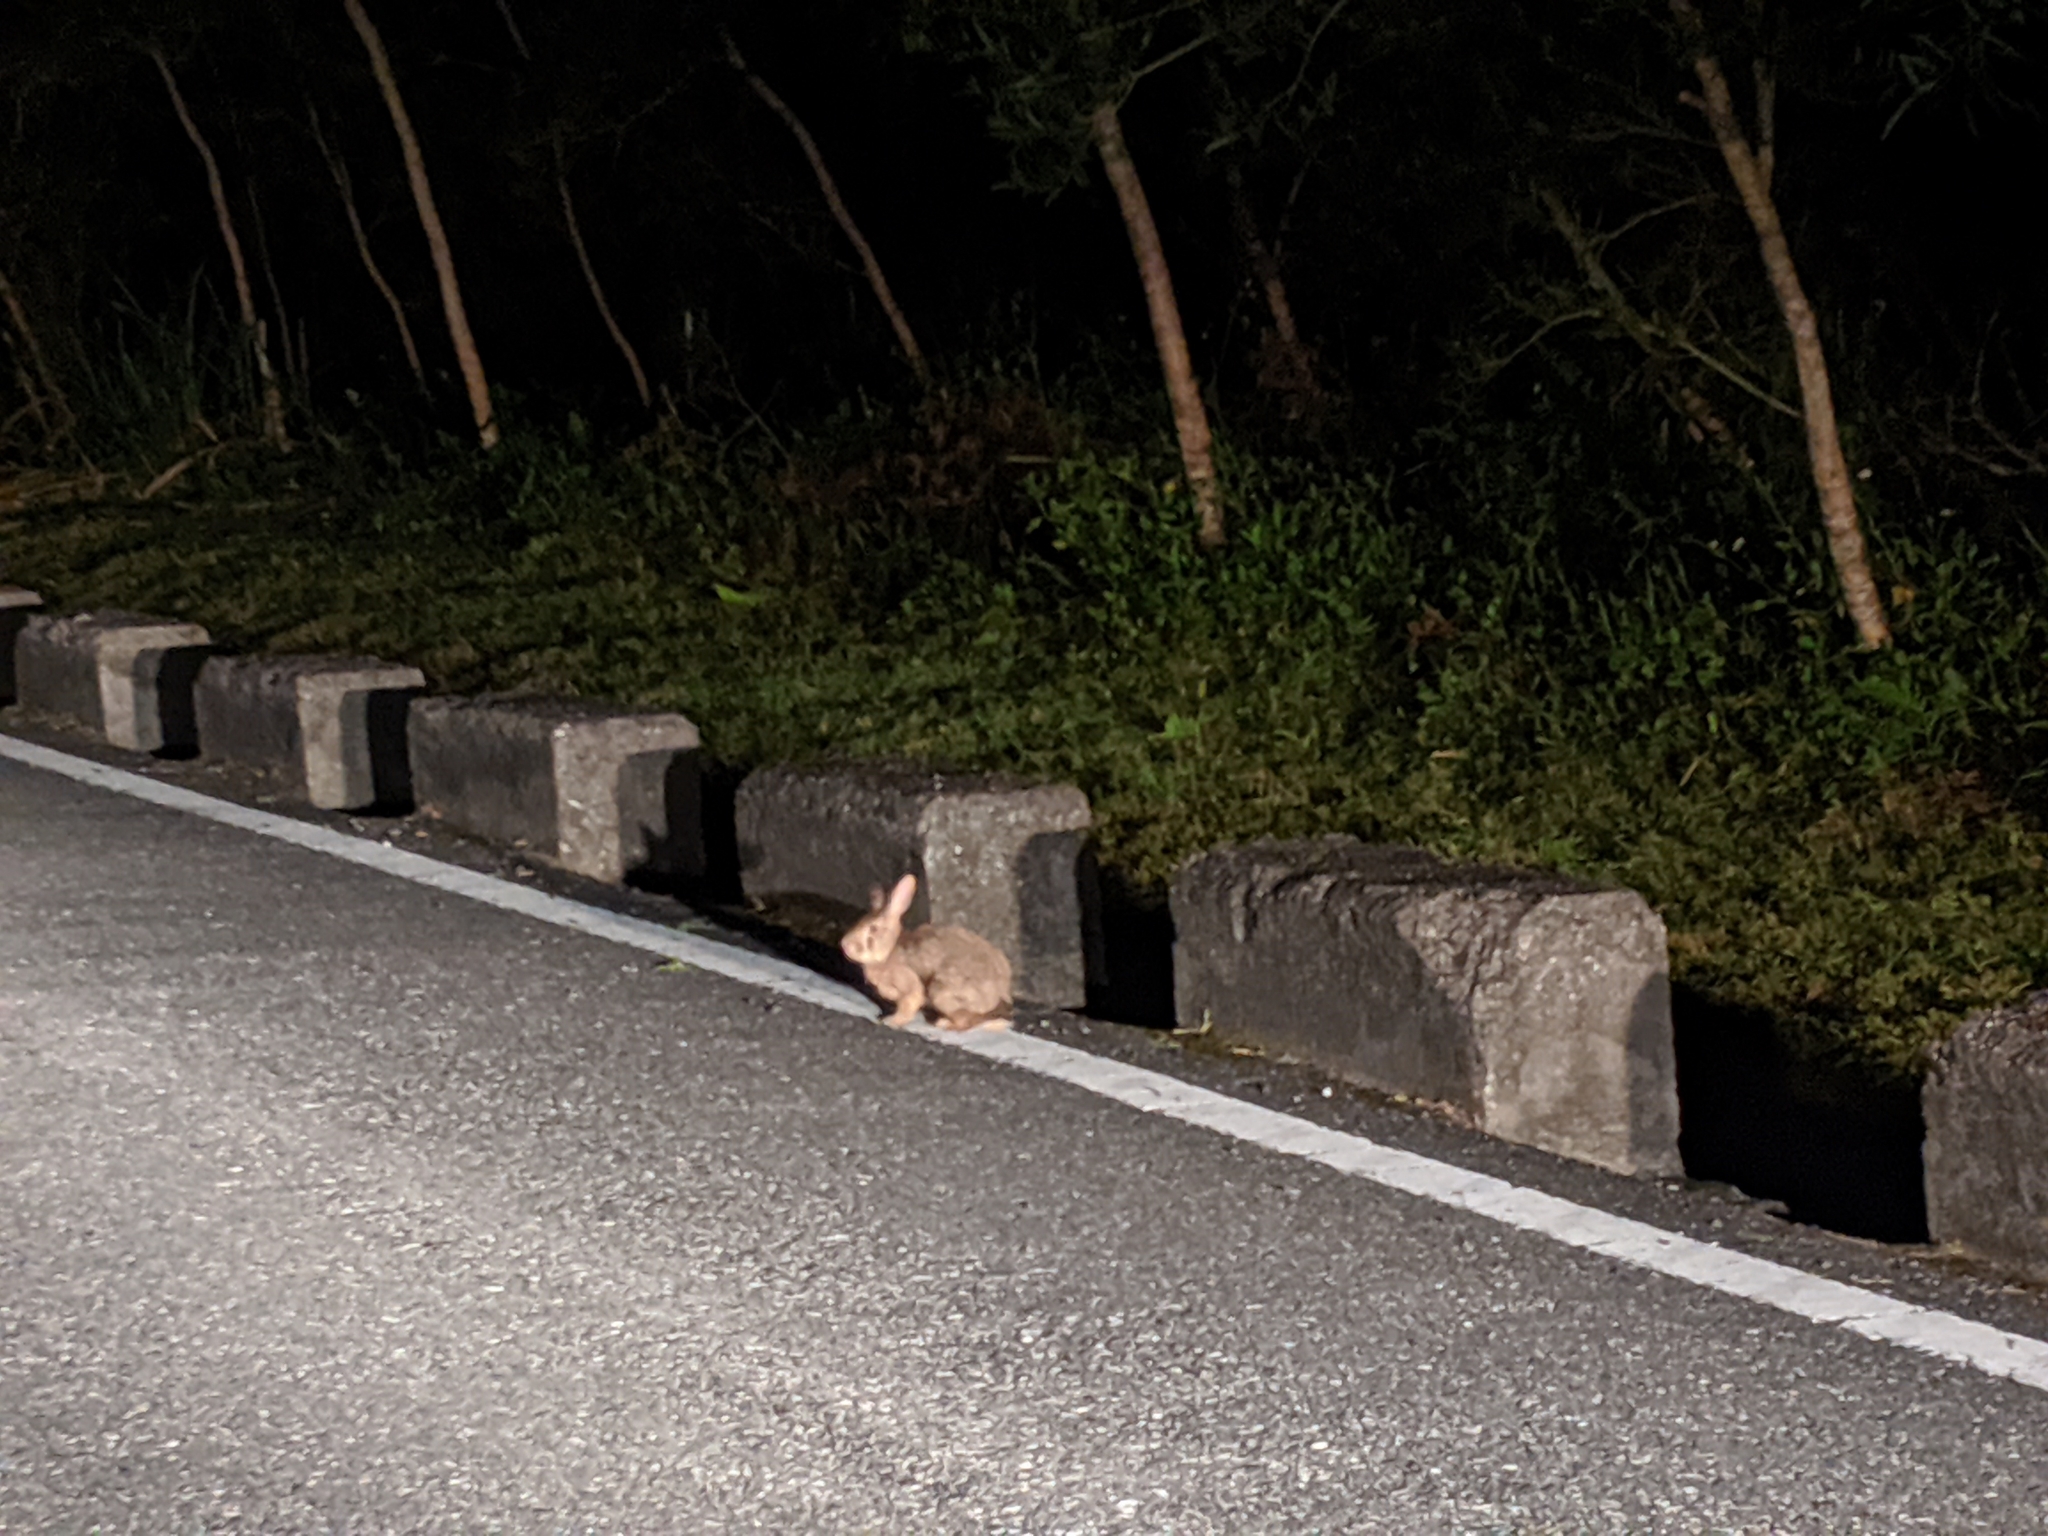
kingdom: Animalia
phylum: Chordata
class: Mammalia
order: Lagomorpha
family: Leporidae
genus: Lepus
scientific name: Lepus sinensis
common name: Chinese hare
